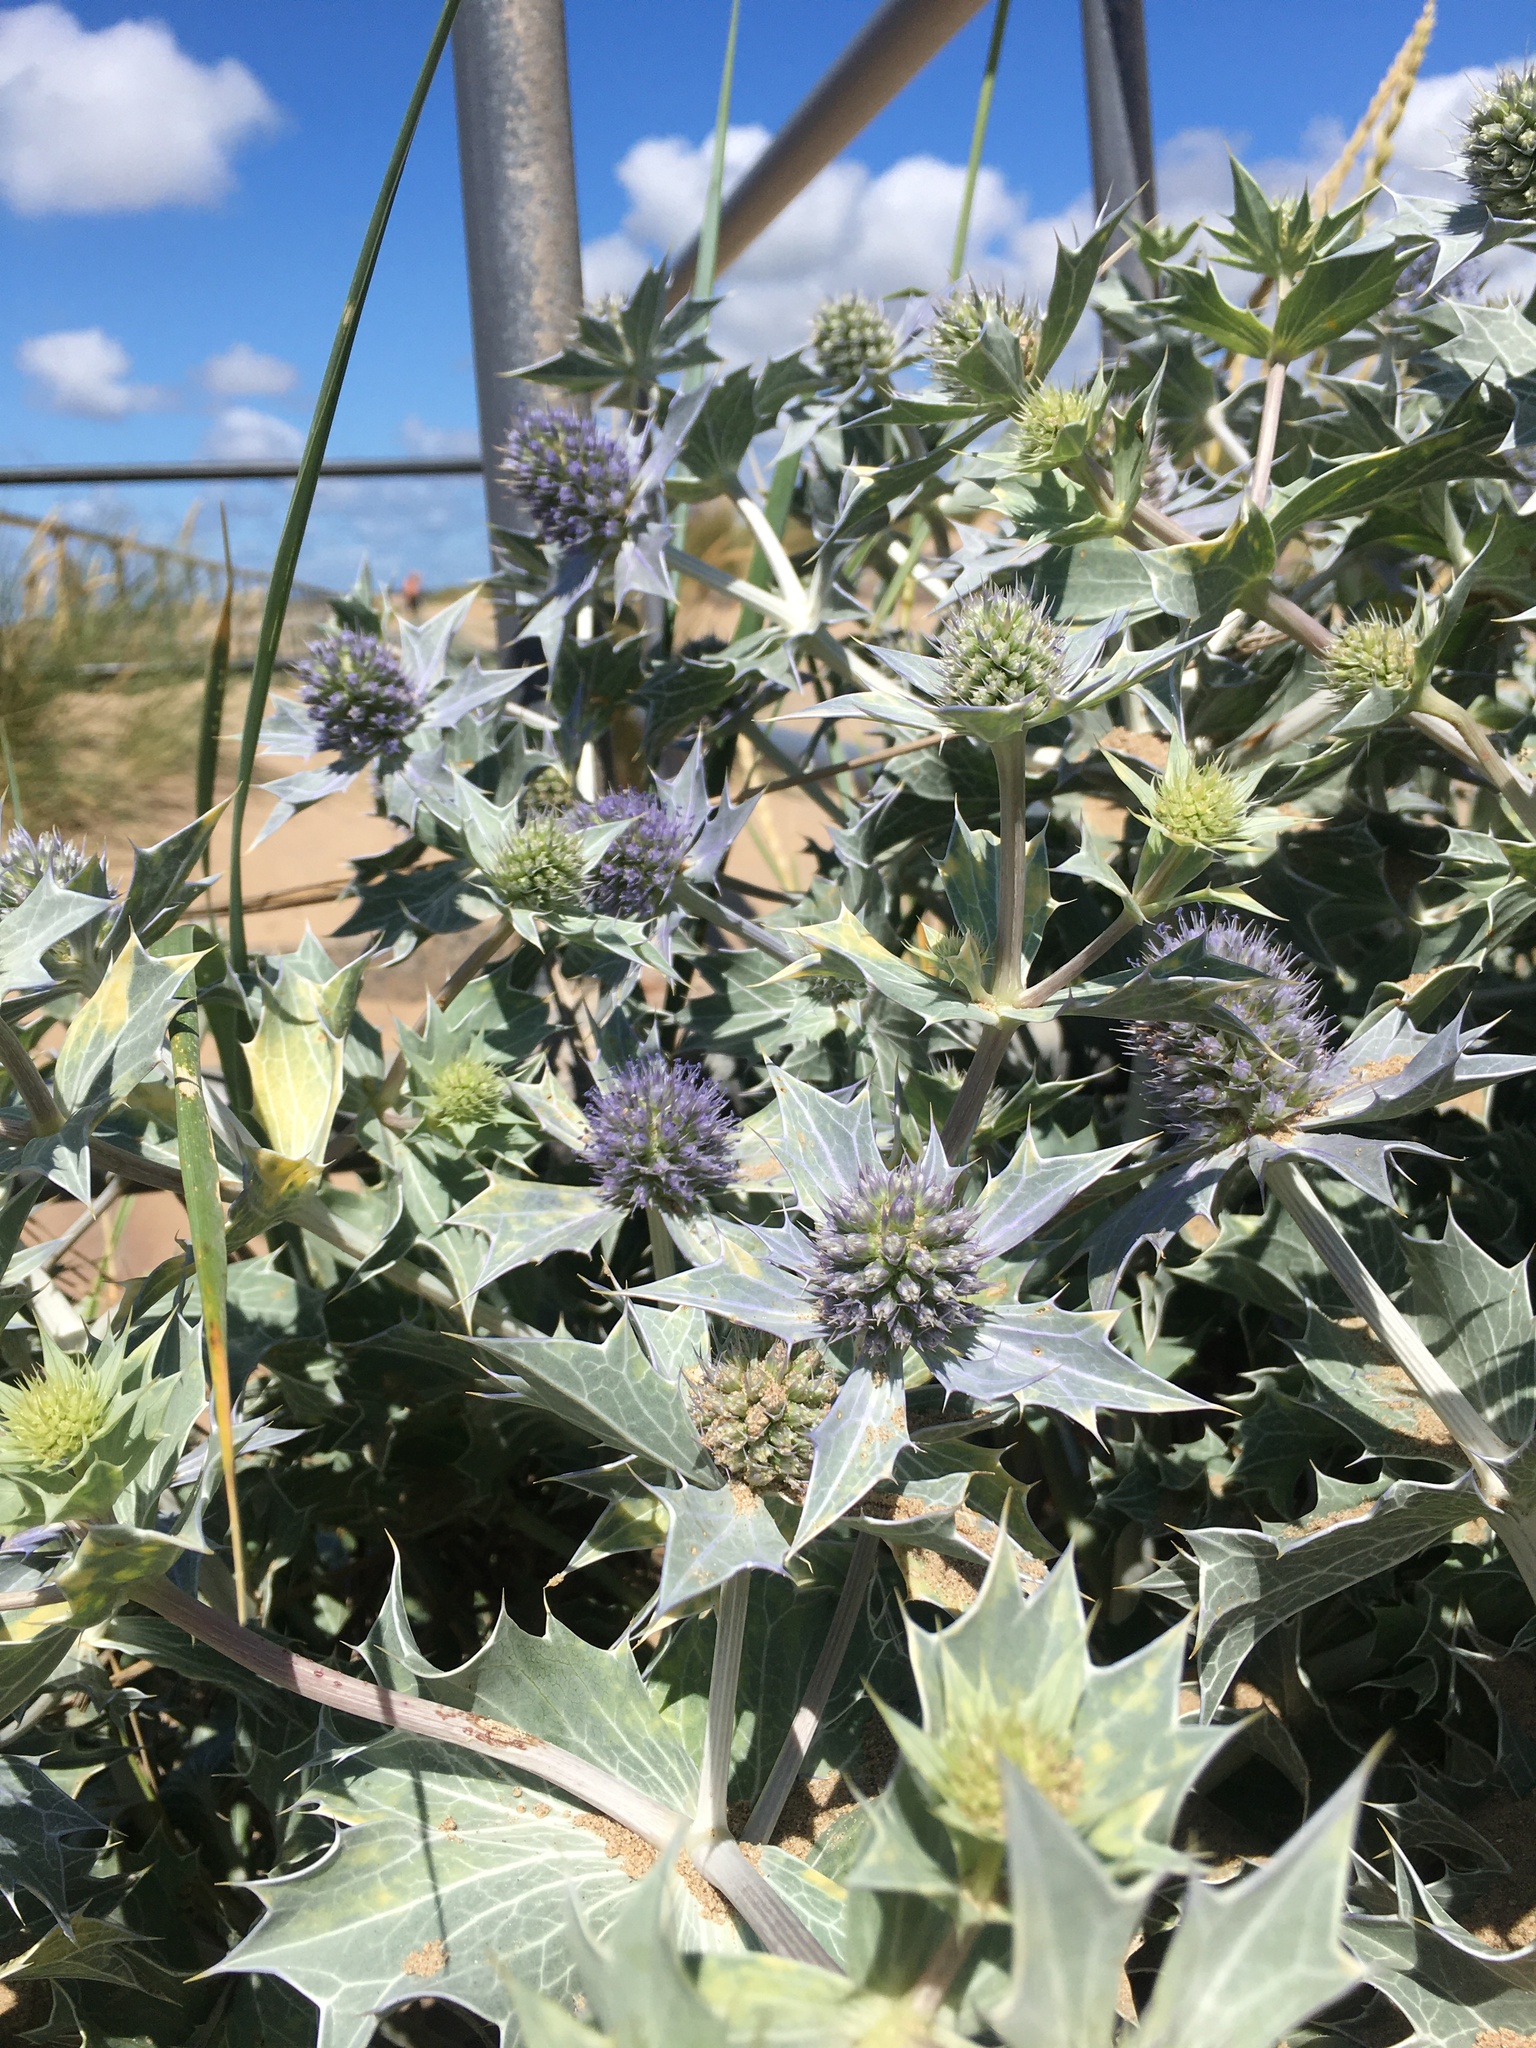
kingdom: Plantae
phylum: Tracheophyta
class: Magnoliopsida
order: Apiales
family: Apiaceae
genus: Eryngium
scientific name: Eryngium maritimum
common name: Sea-holly
